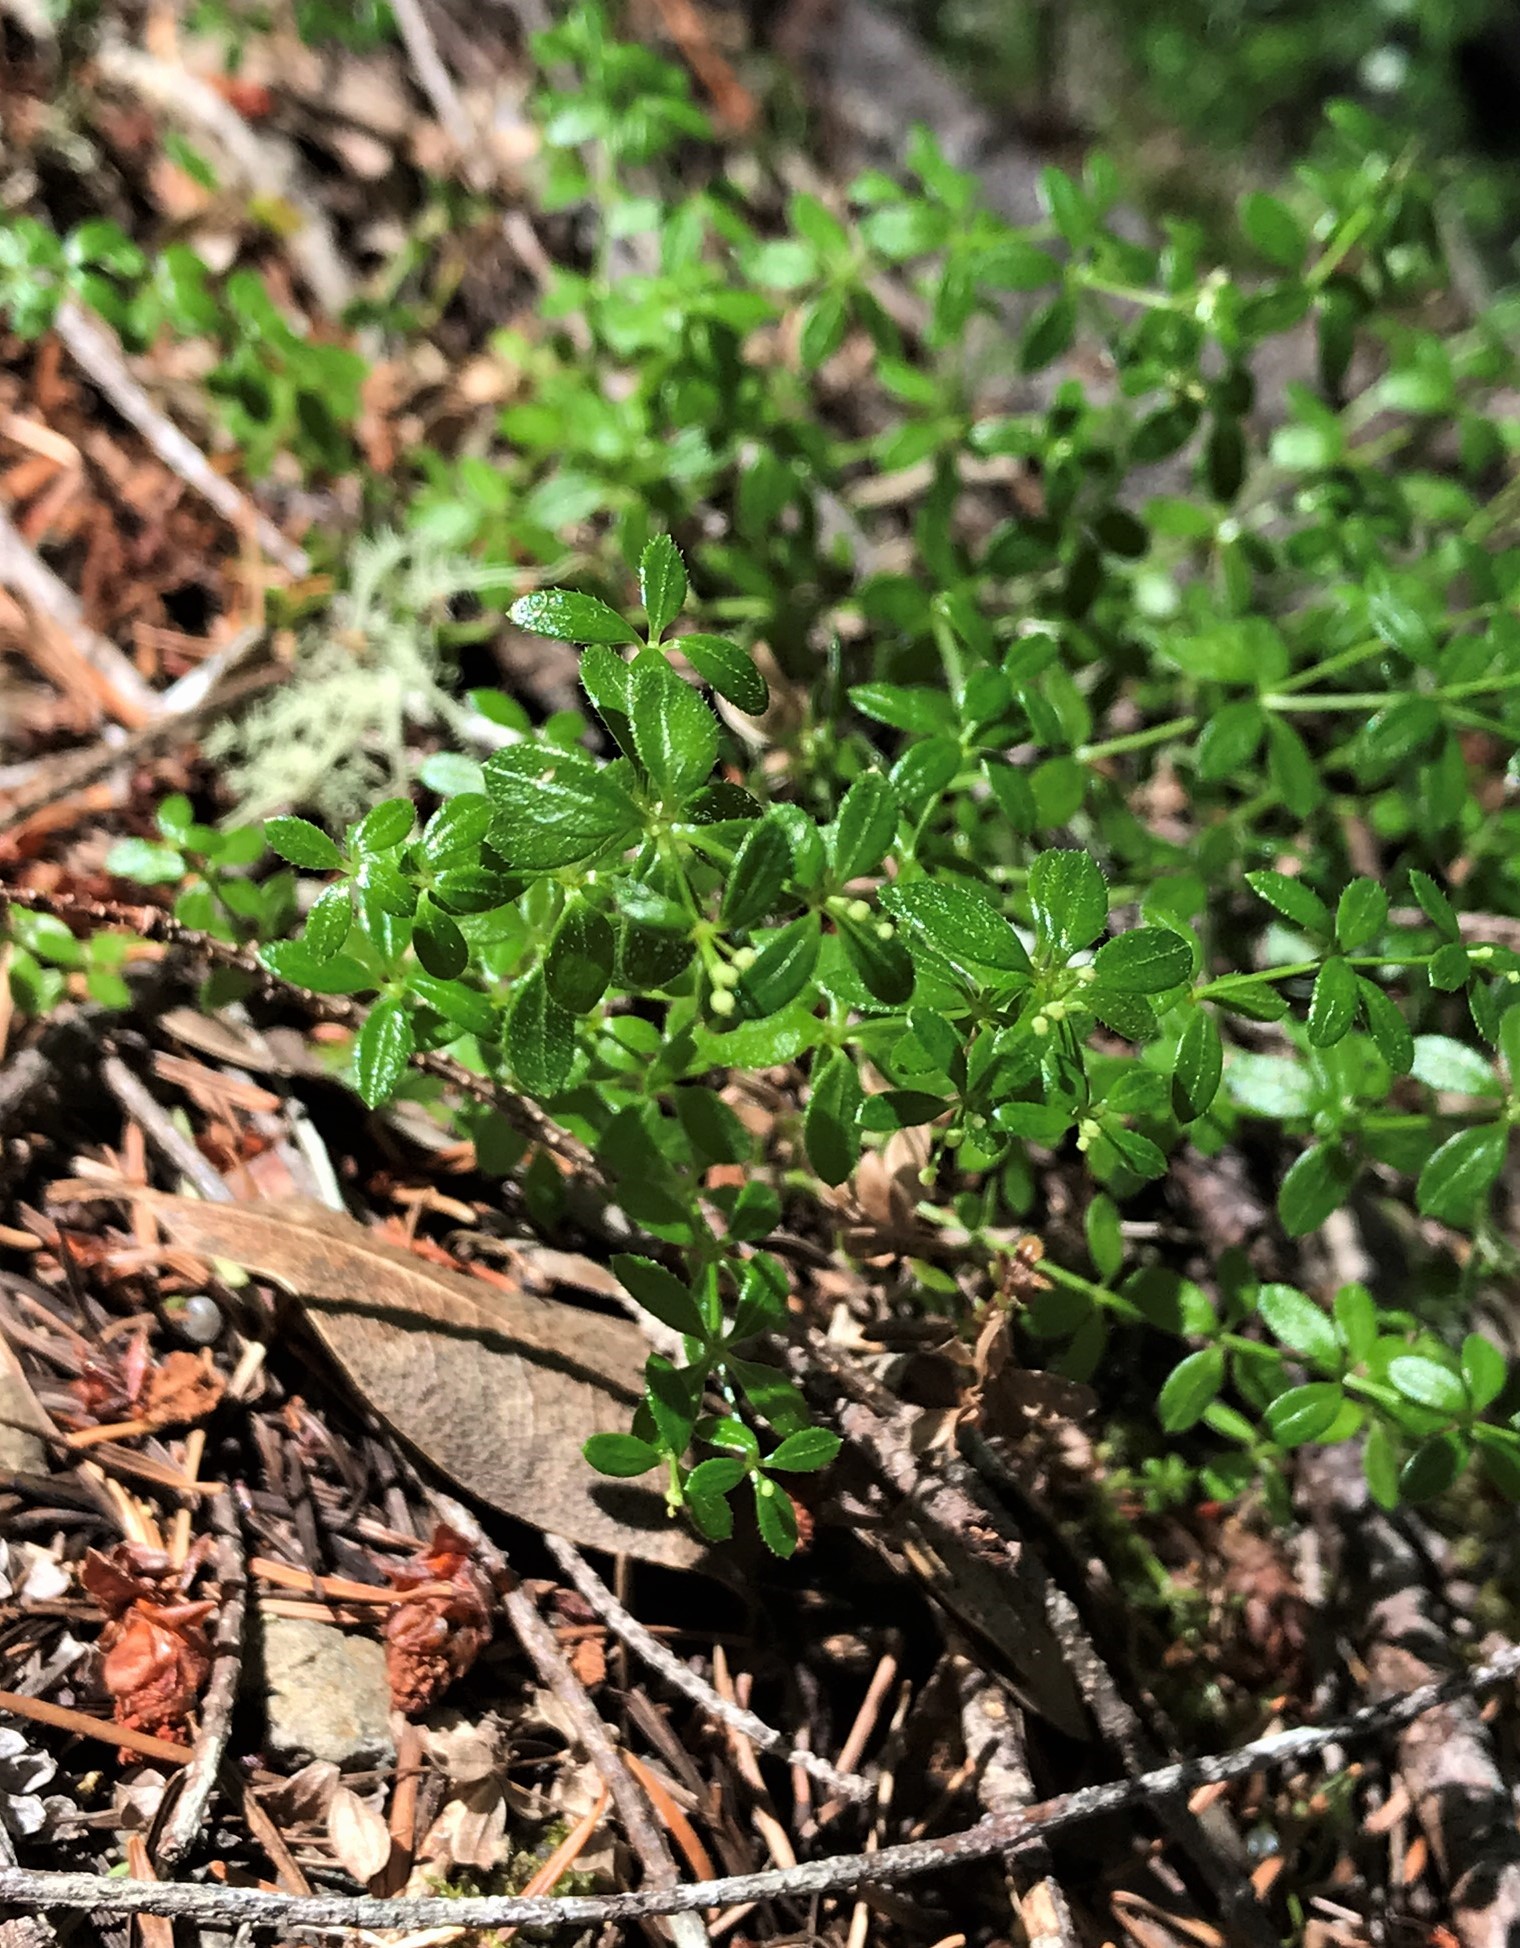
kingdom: Plantae
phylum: Tracheophyta
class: Magnoliopsida
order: Gentianales
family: Rubiaceae
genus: Galium
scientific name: Galium muricatum
